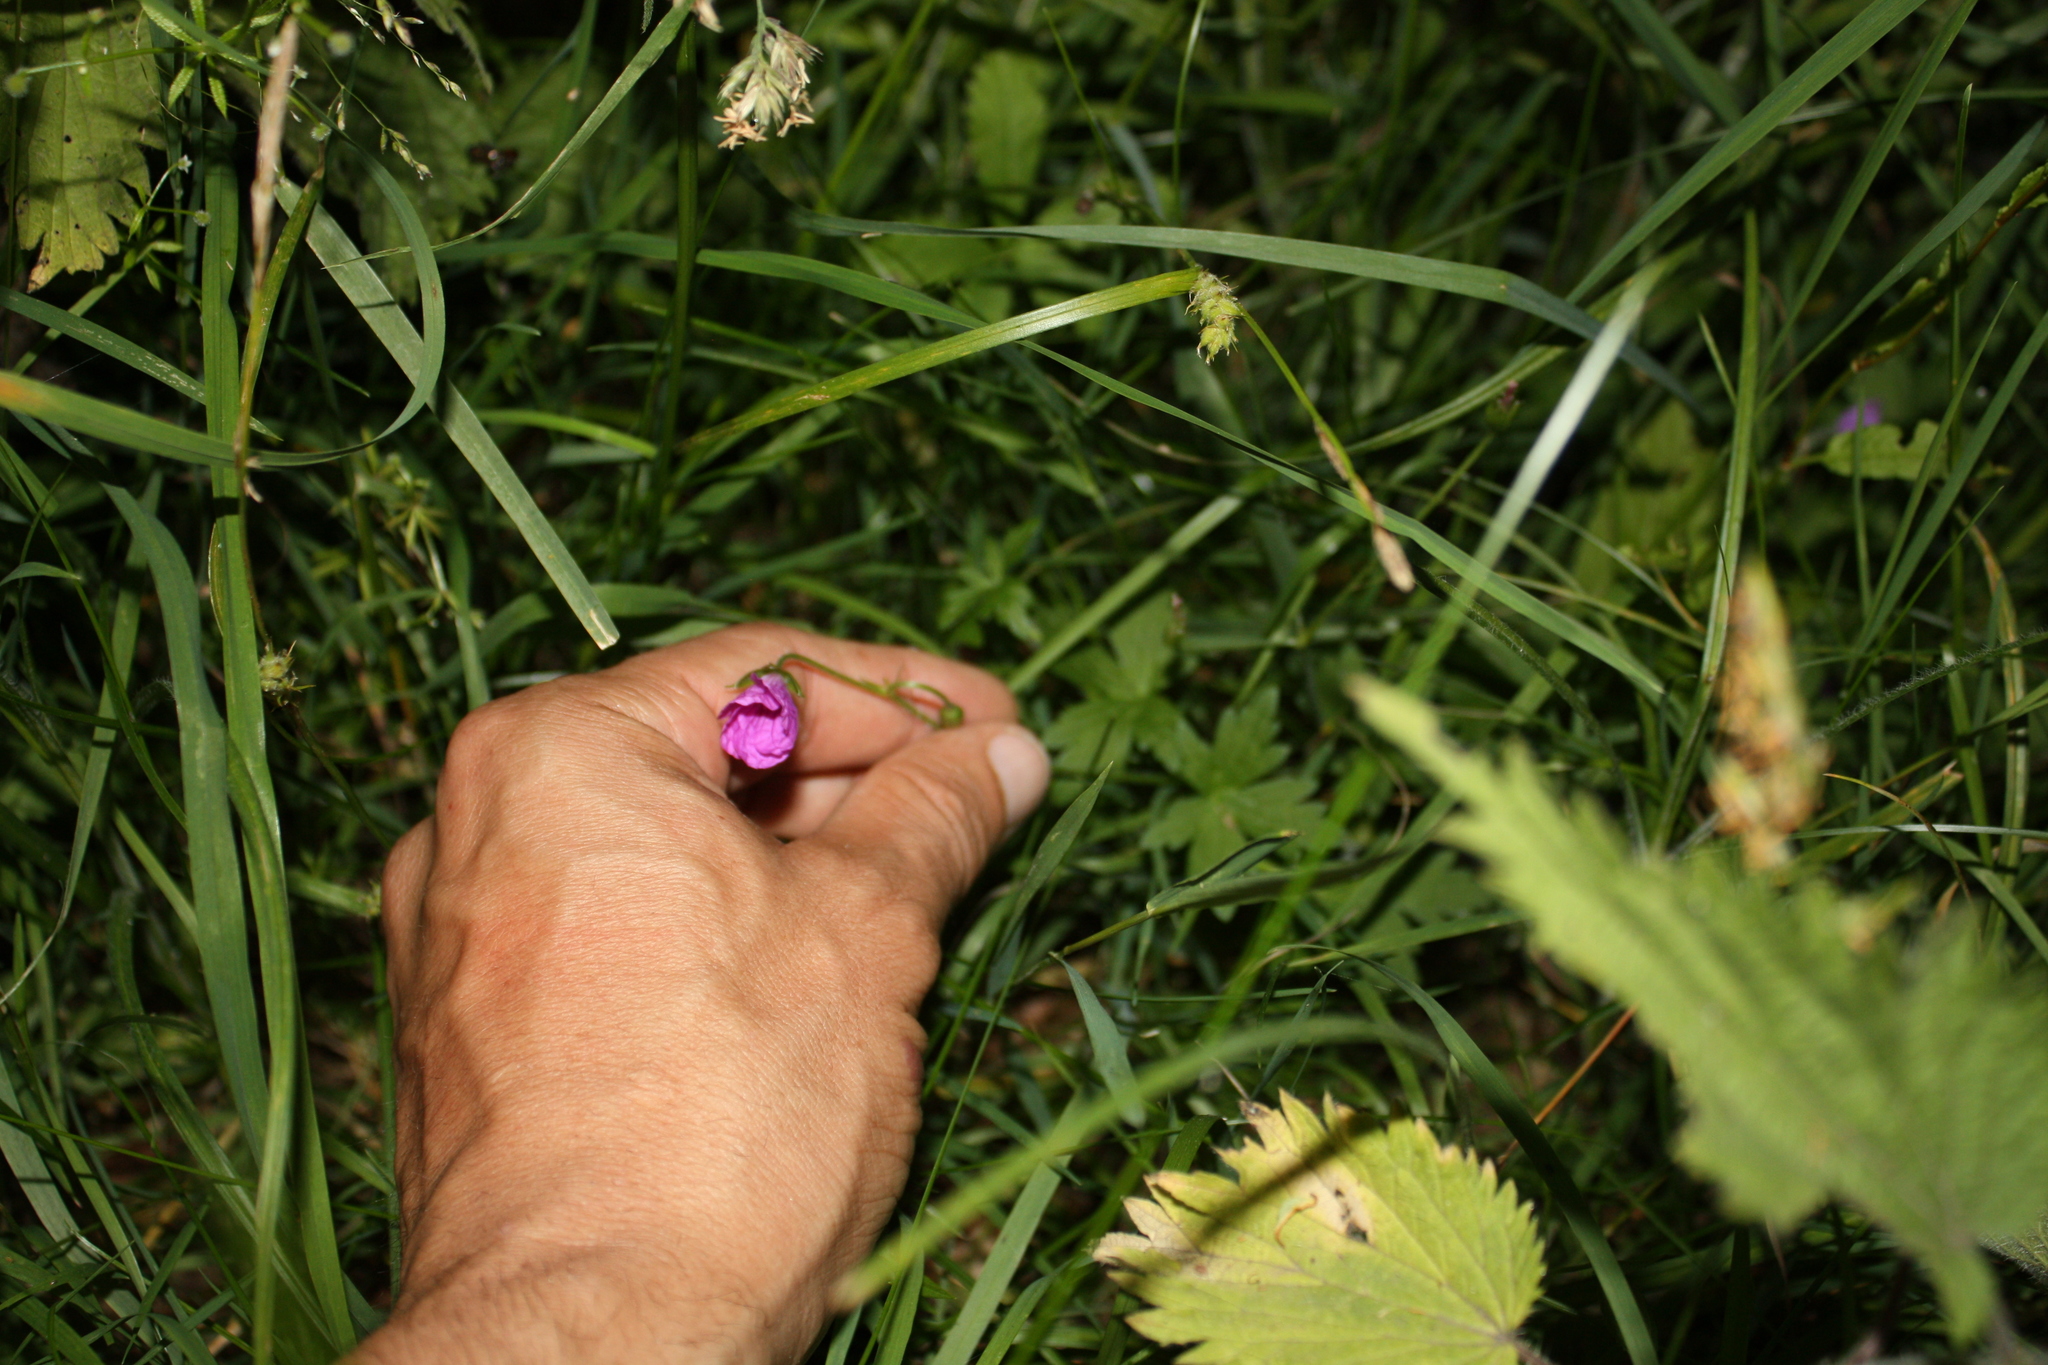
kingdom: Plantae
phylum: Tracheophyta
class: Magnoliopsida
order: Geraniales
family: Geraniaceae
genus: Geranium
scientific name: Geranium columbinum
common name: Long-stalked crane's-bill
